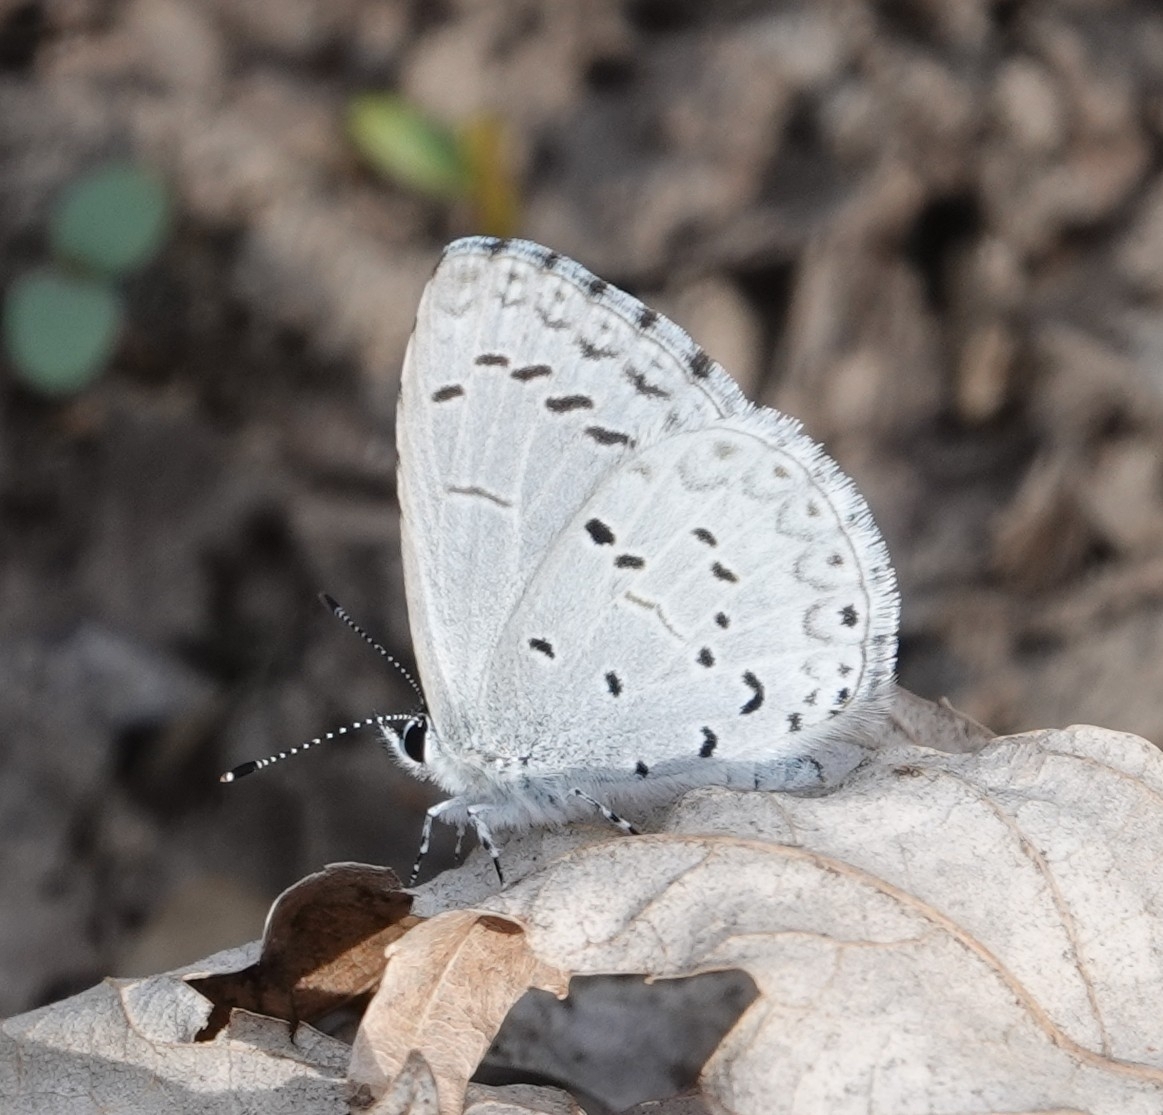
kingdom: Animalia
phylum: Arthropoda
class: Insecta
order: Lepidoptera
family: Lycaenidae
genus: Celastrina
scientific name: Celastrina ladon
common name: Spring azure
